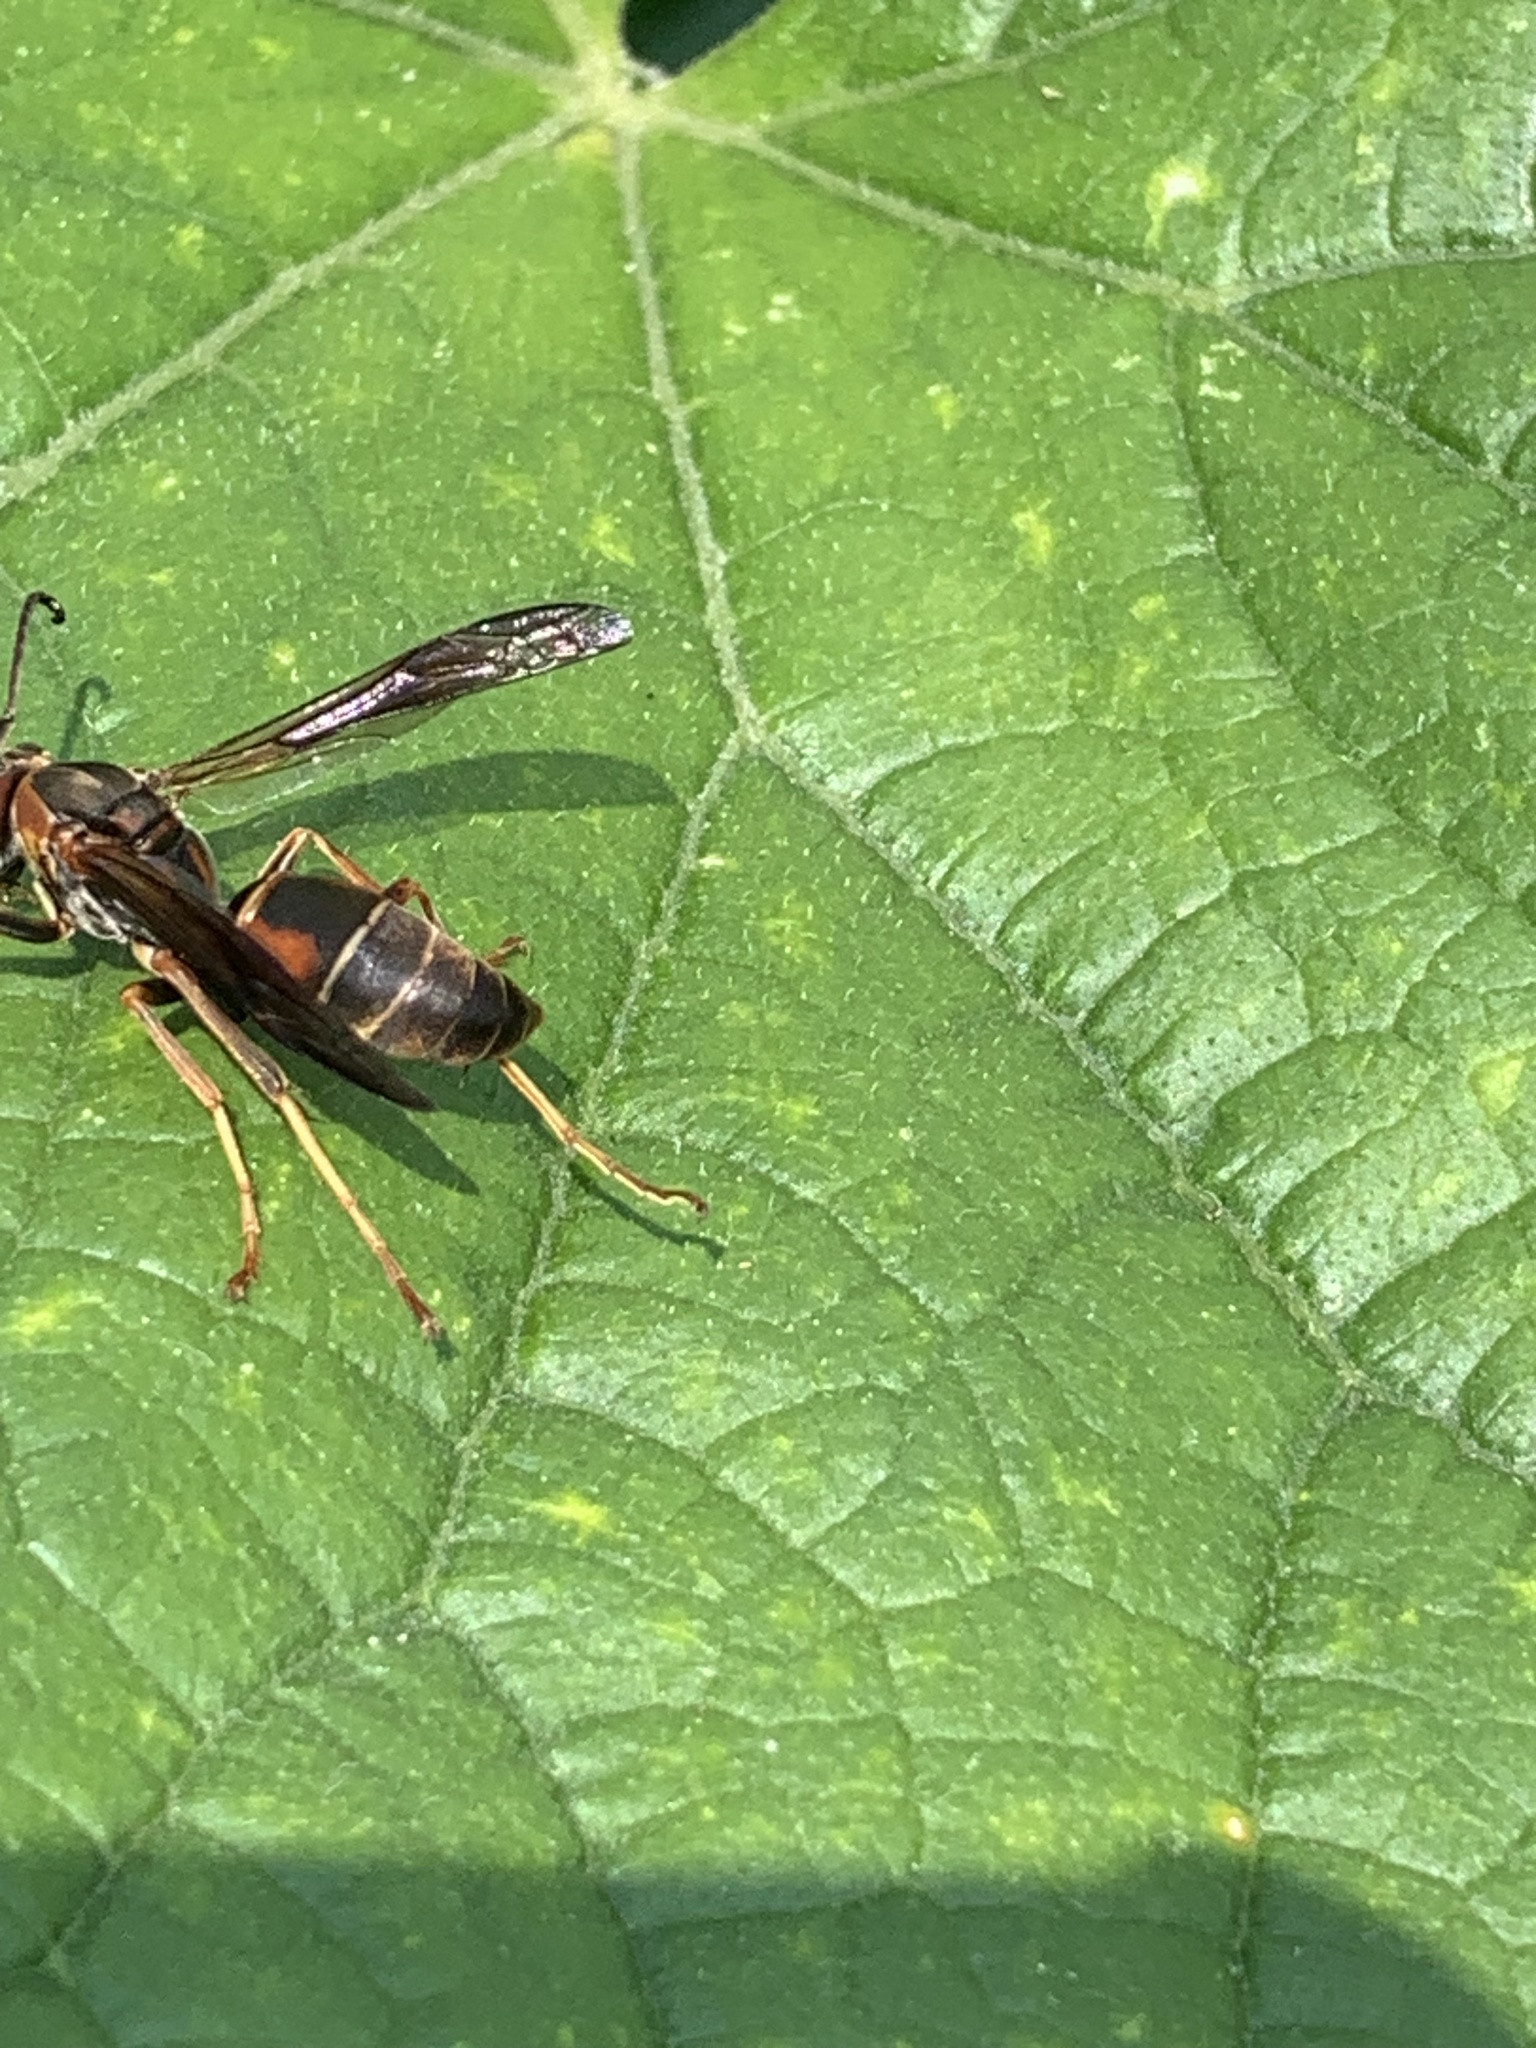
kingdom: Animalia
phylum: Arthropoda
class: Insecta
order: Hymenoptera
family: Eumenidae
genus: Polistes
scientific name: Polistes fuscatus
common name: Dark paper wasp
